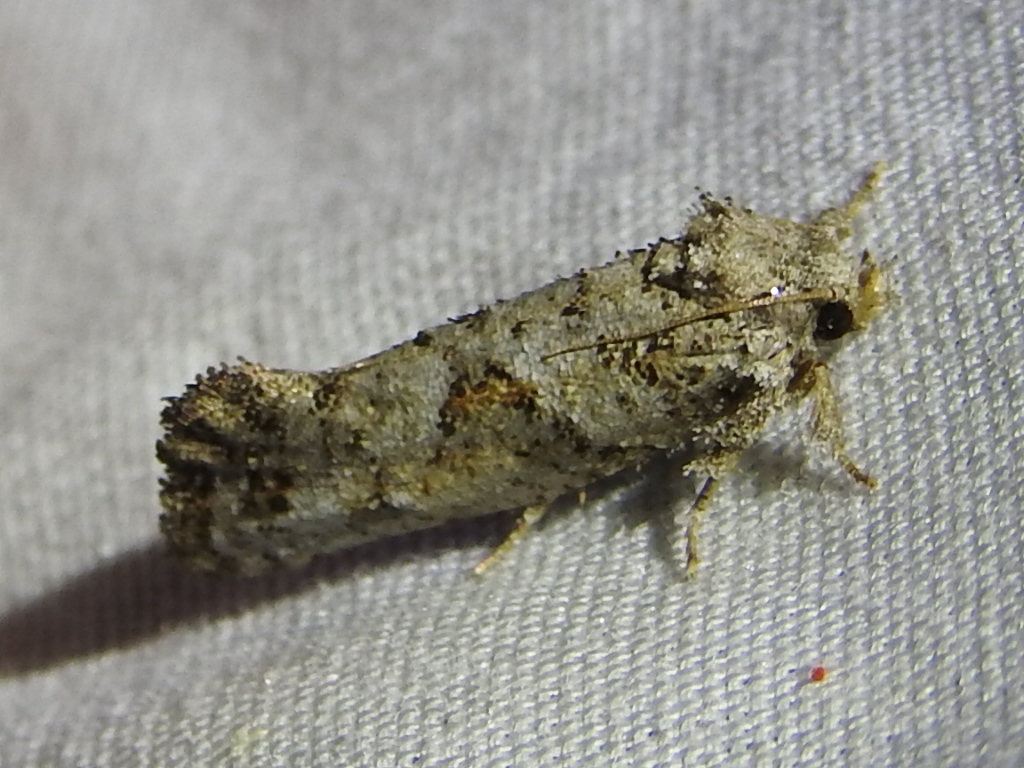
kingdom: Animalia
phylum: Arthropoda
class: Insecta
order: Lepidoptera
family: Tineidae
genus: Acrolophus
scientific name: Acrolophus piger
